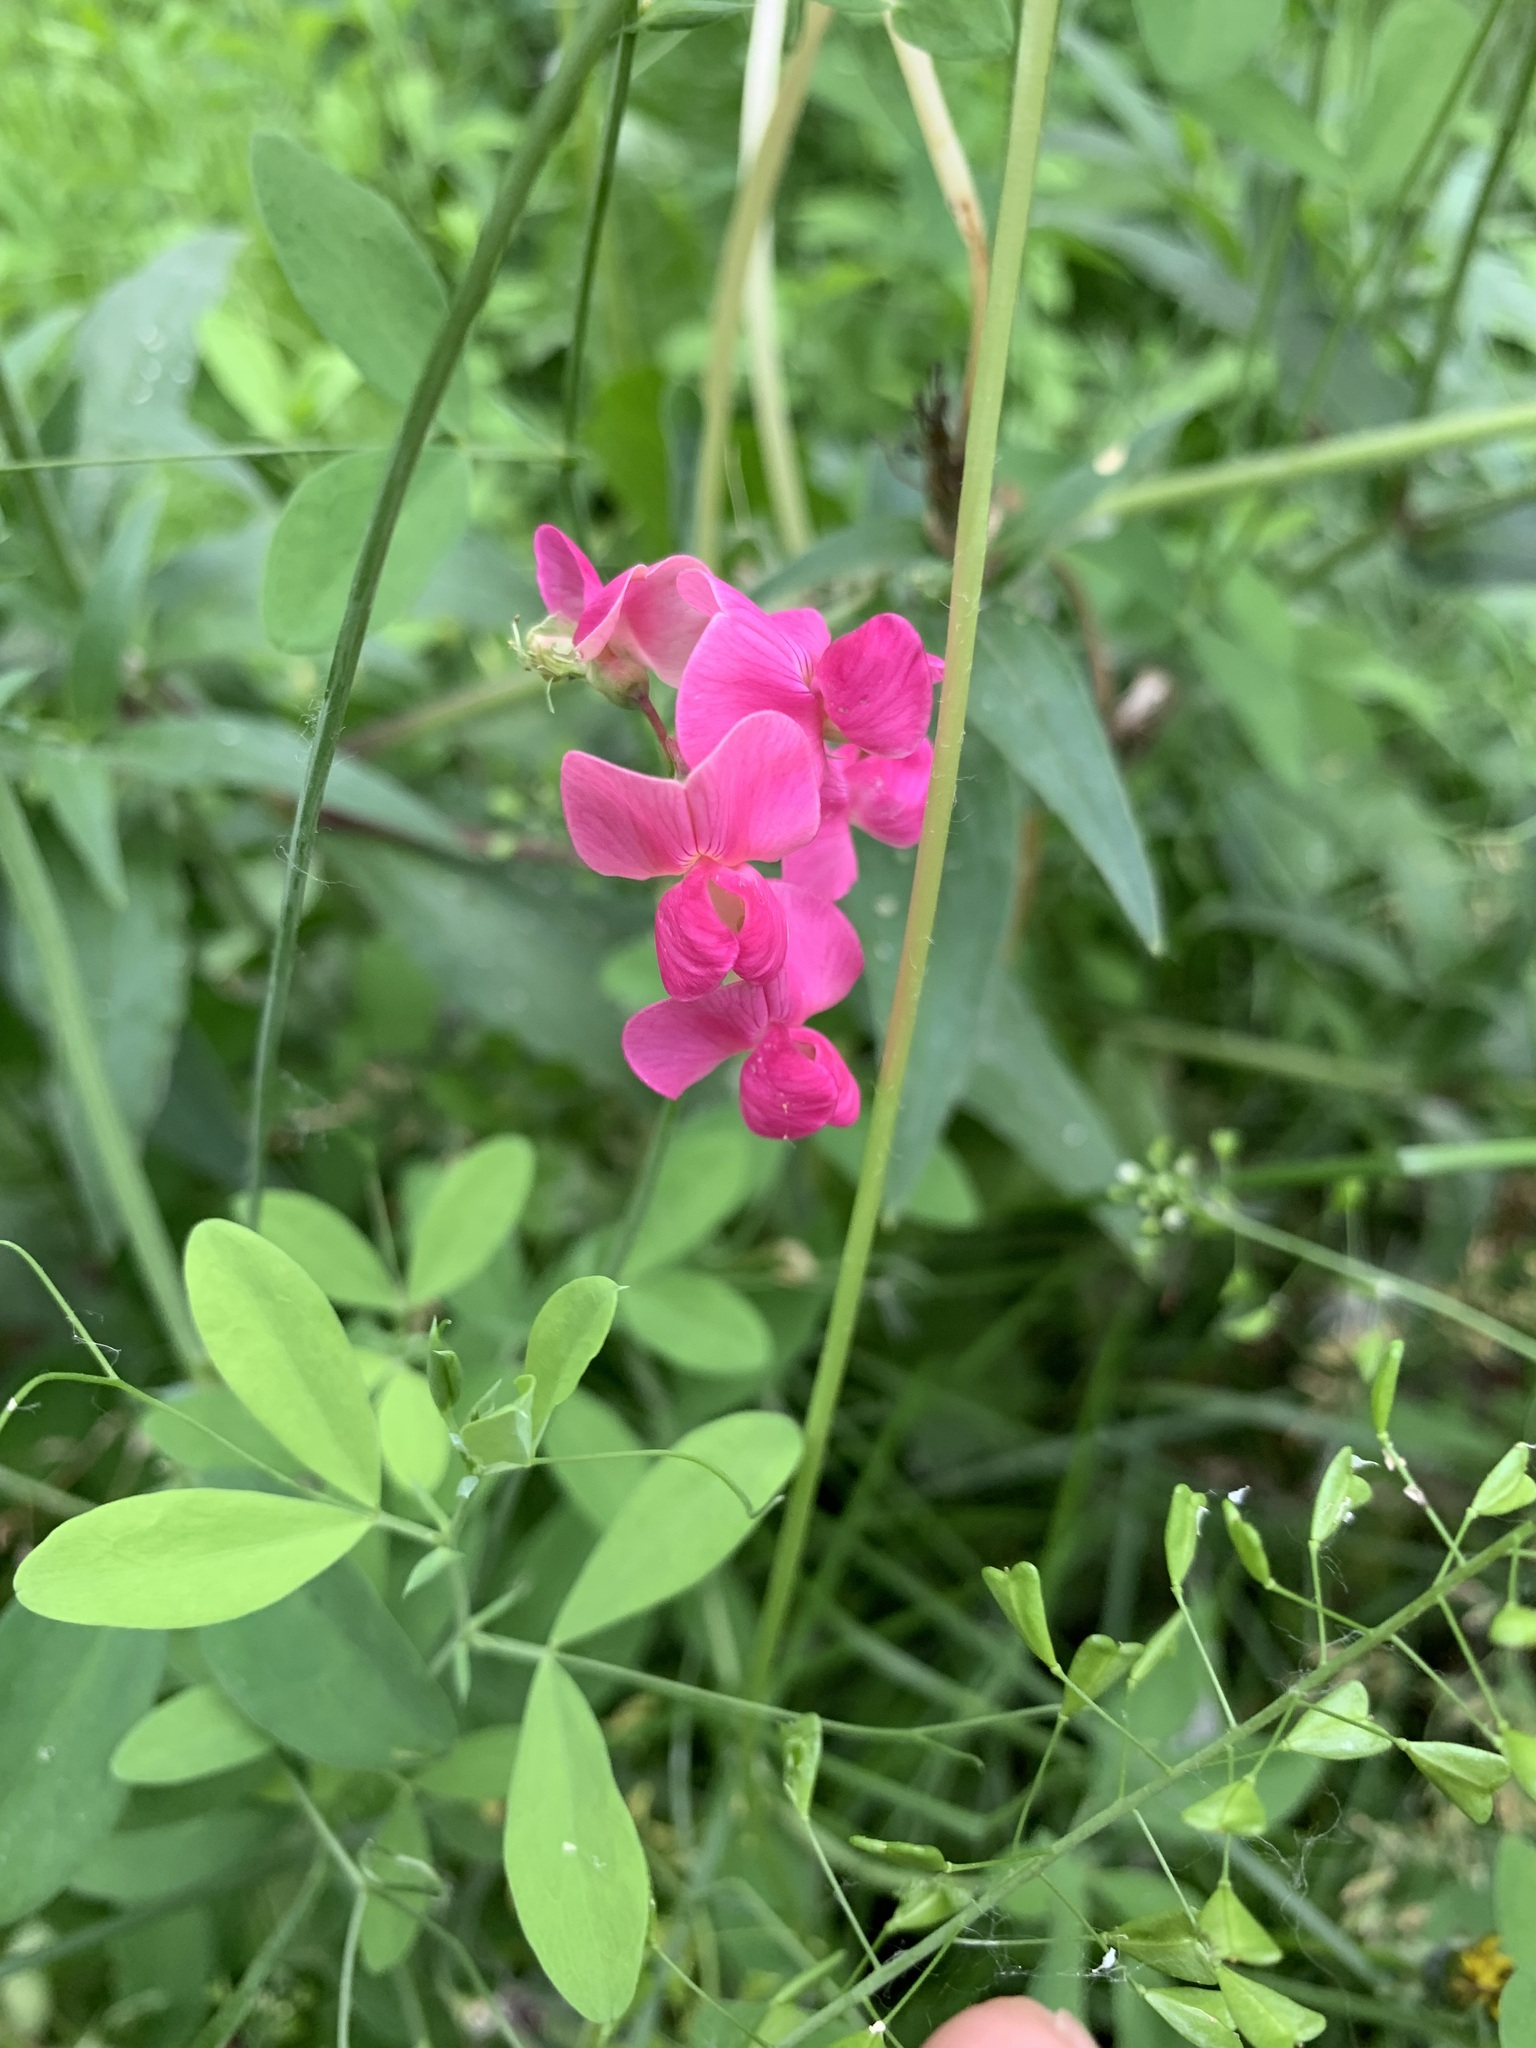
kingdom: Plantae
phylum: Tracheophyta
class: Magnoliopsida
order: Fabales
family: Fabaceae
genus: Lathyrus
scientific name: Lathyrus tuberosus
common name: Tuberous pea
